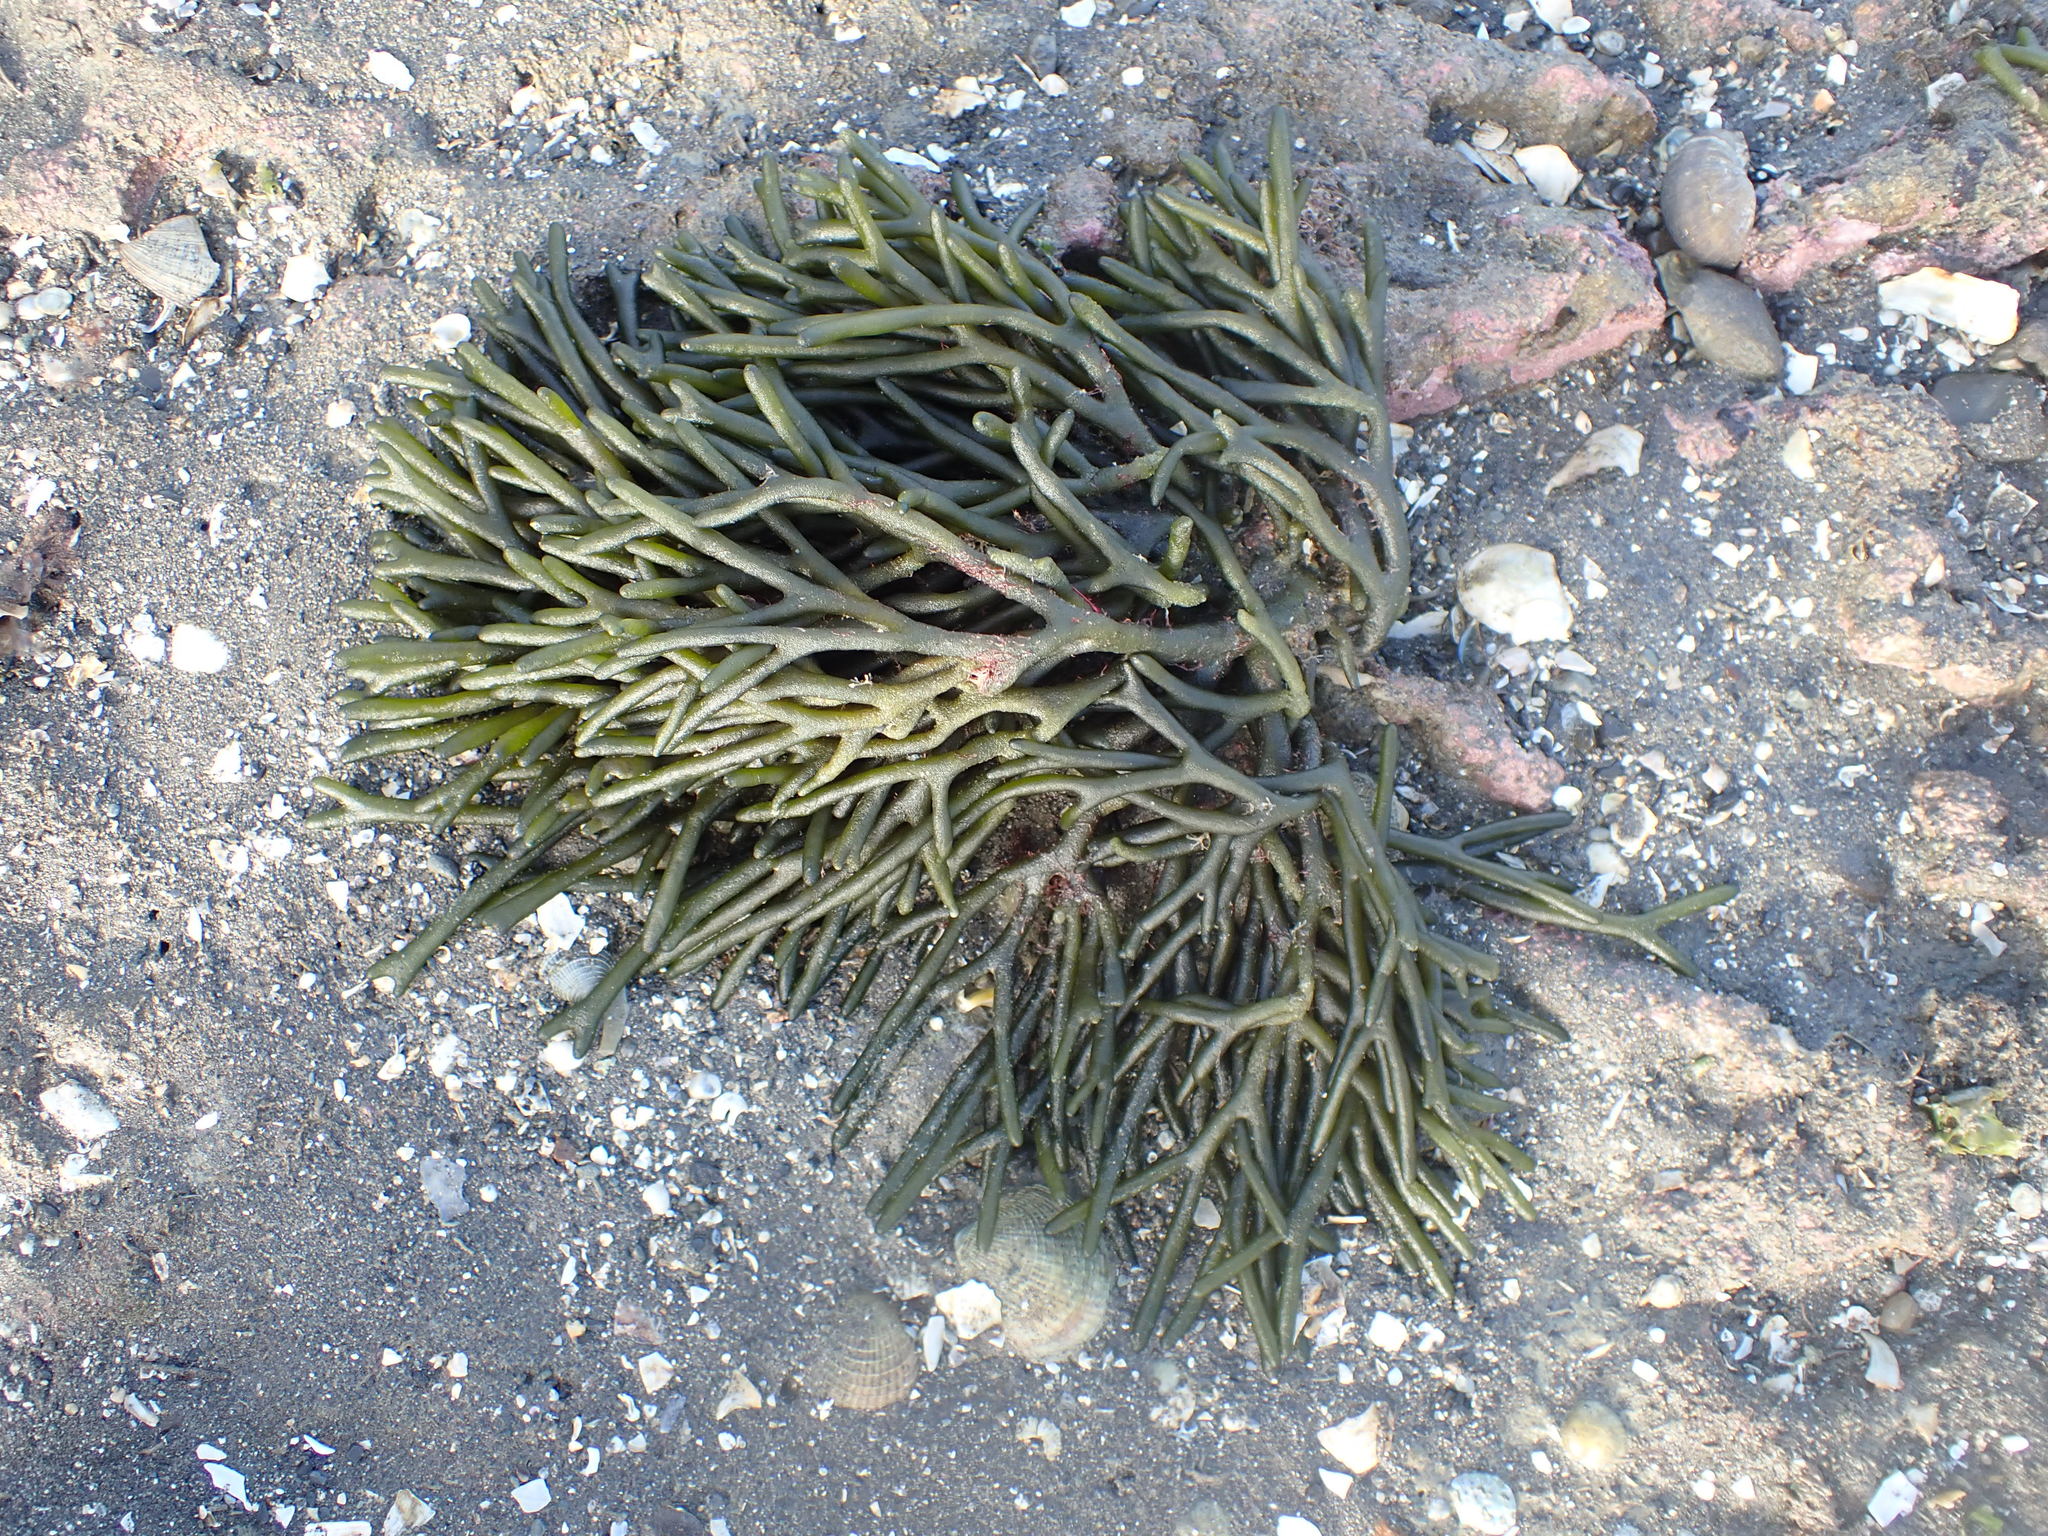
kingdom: Plantae
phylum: Chlorophyta
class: Ulvophyceae
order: Bryopsidales
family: Codiaceae
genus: Codium
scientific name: Codium fragile
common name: Dead man's fingers
